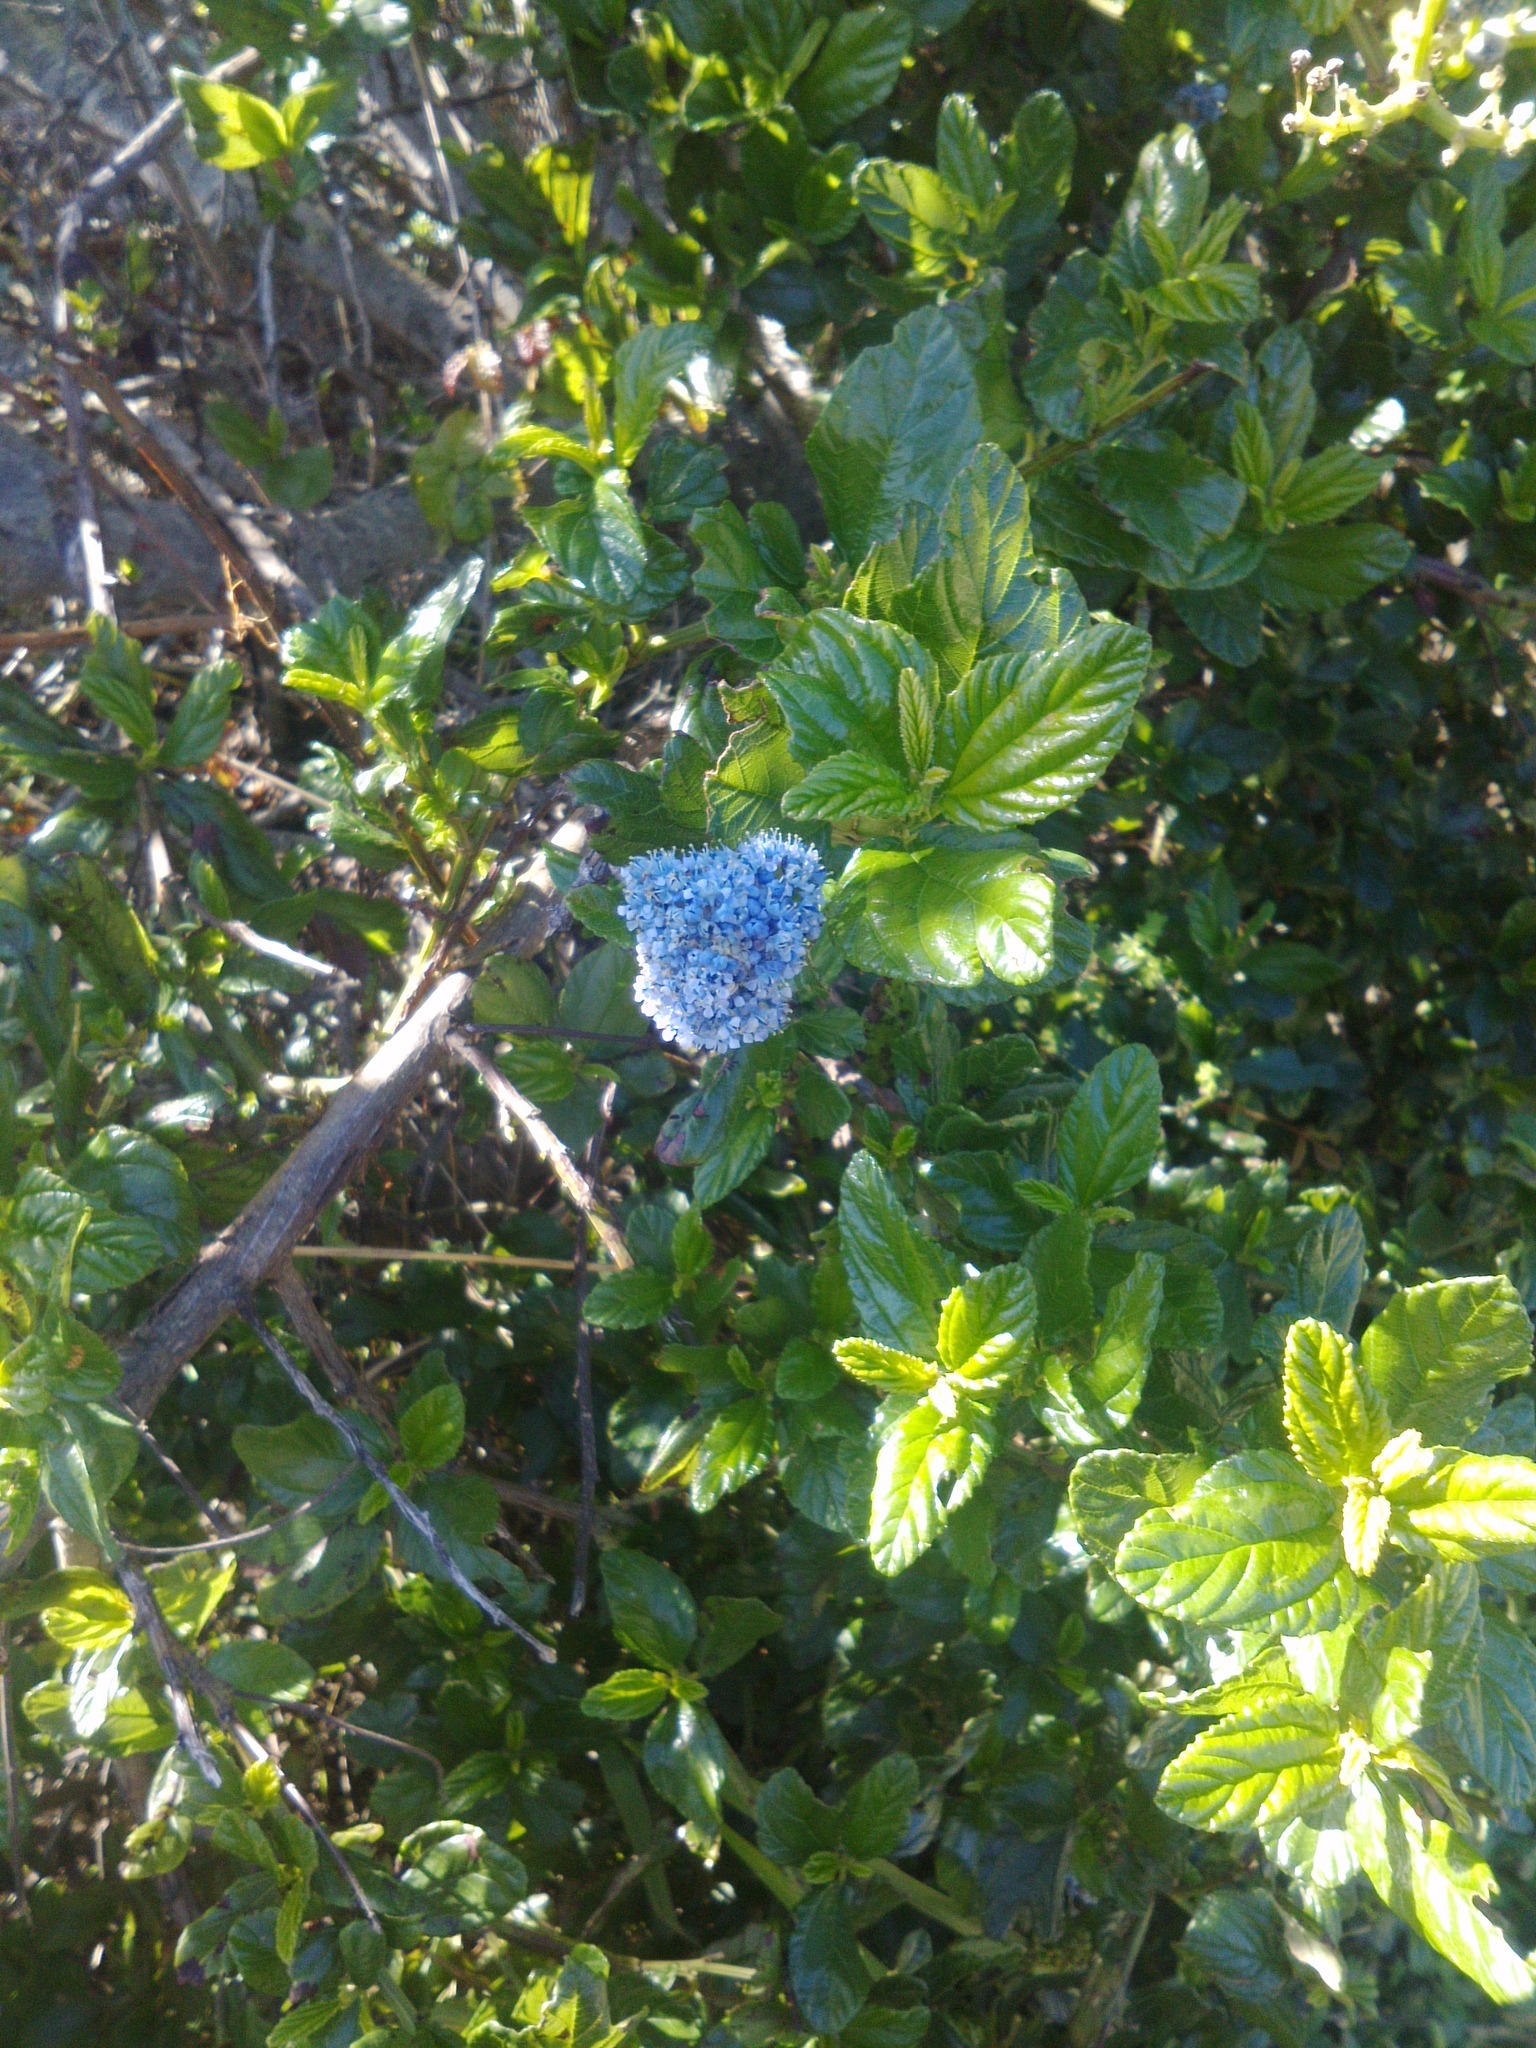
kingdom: Plantae
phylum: Tracheophyta
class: Magnoliopsida
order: Rosales
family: Rhamnaceae
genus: Ceanothus
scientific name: Ceanothus thyrsiflorus
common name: California-lilac
